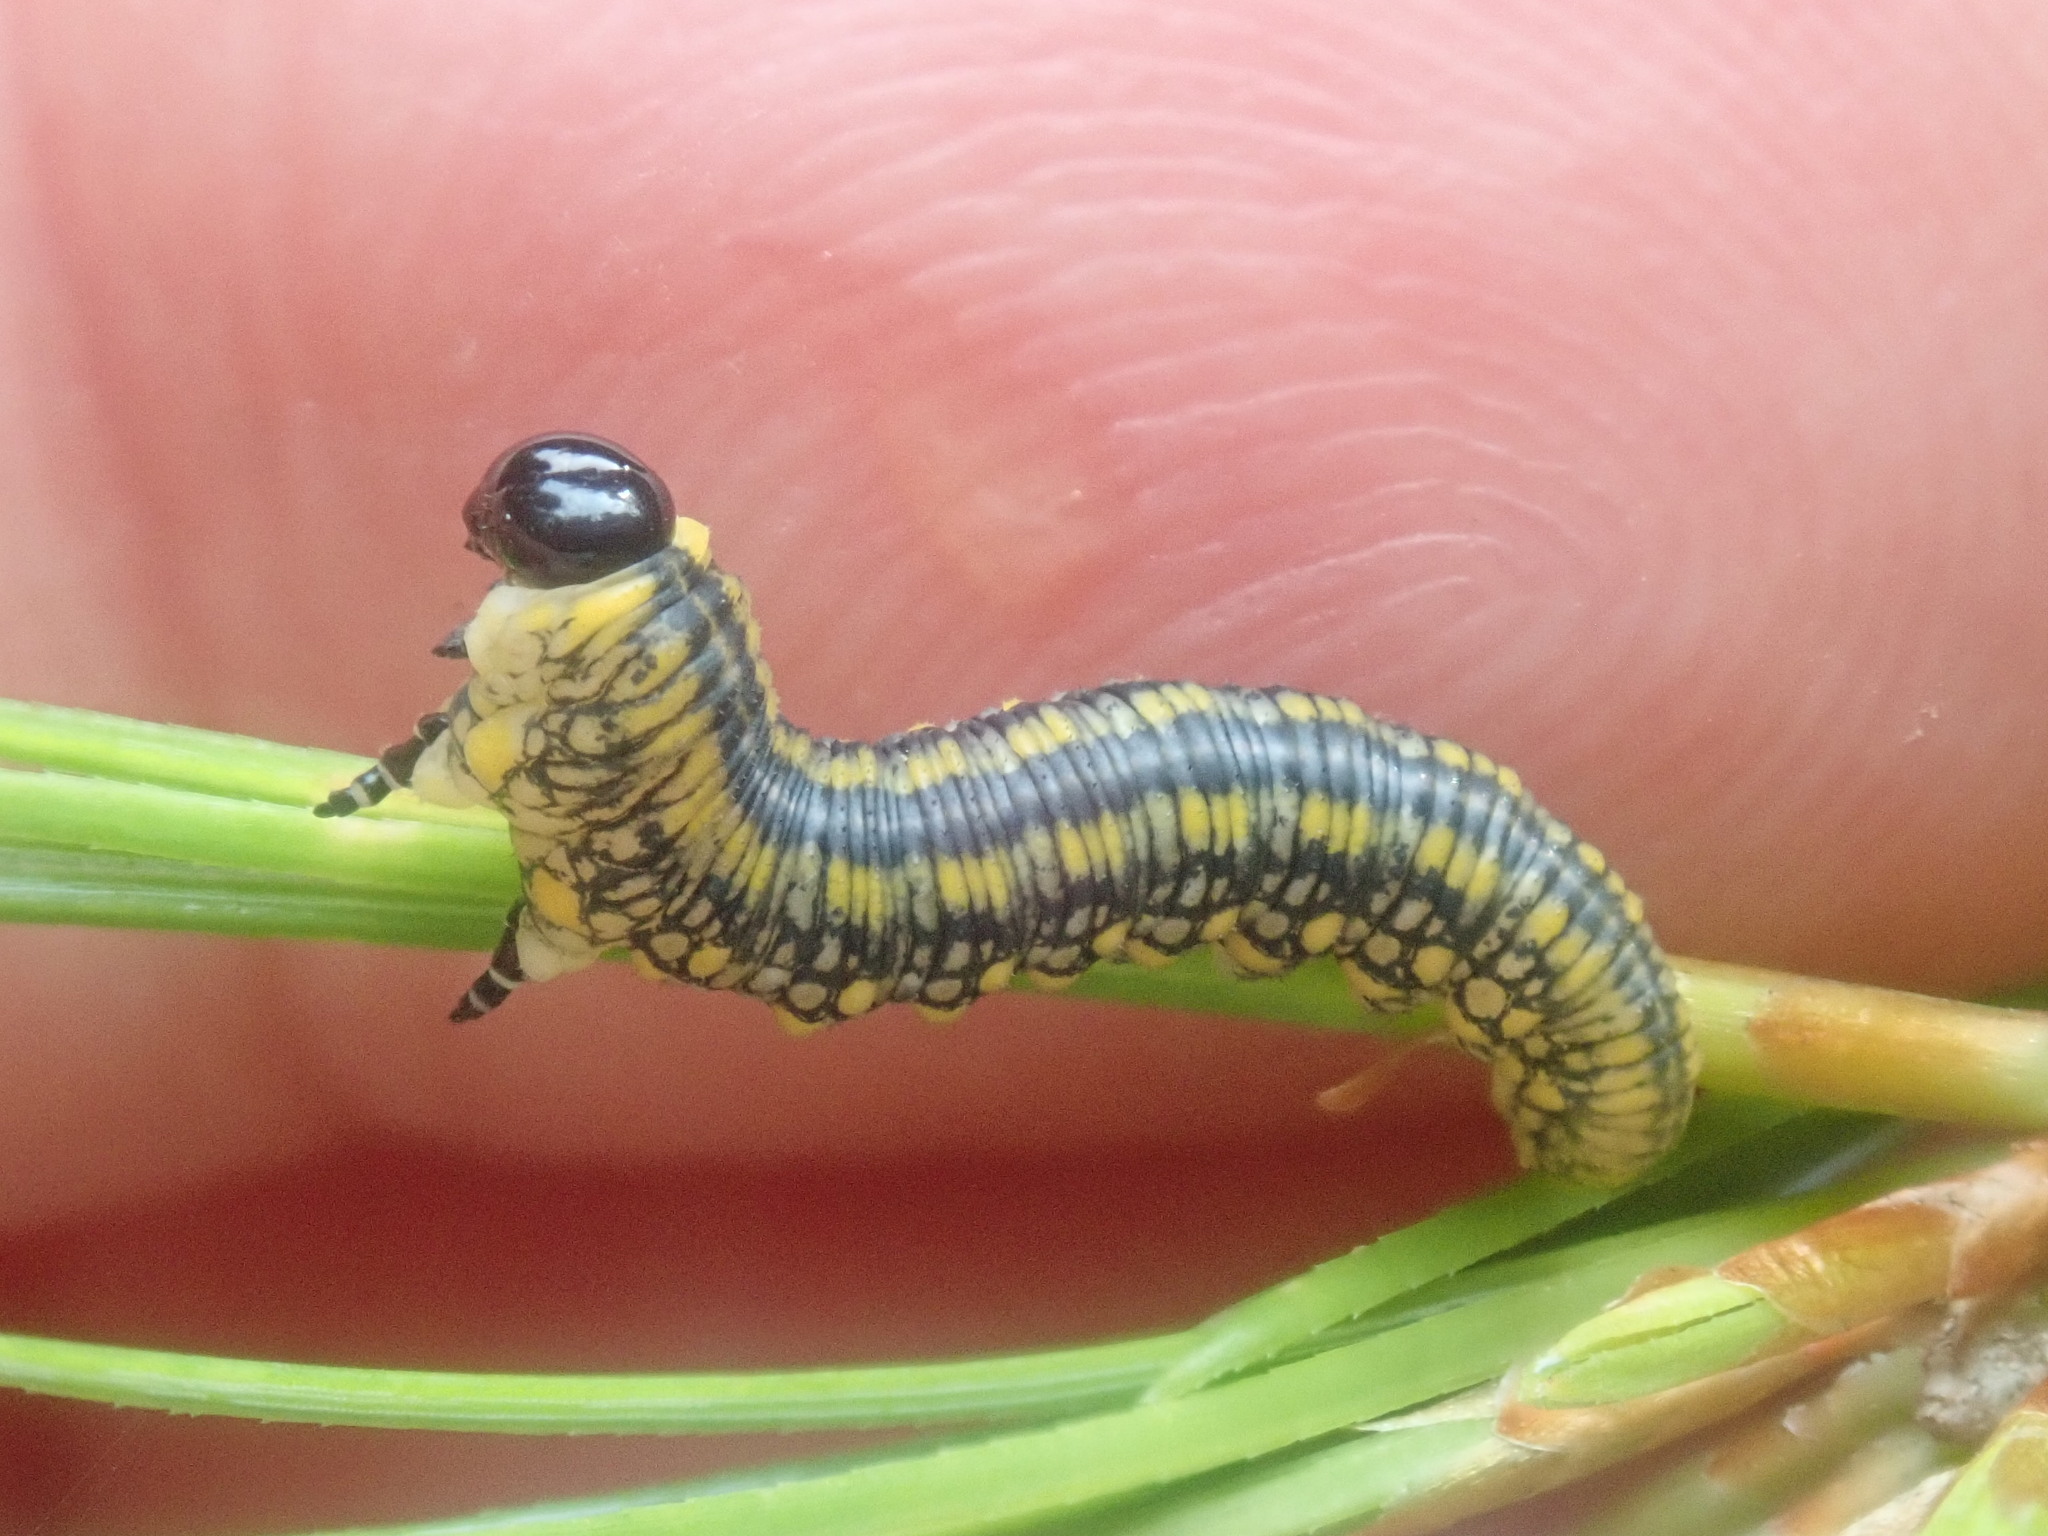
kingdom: Animalia
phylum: Arthropoda
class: Insecta
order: Hymenoptera
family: Diprionidae
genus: Diprion
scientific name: Diprion similis
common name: Pine sawfly
